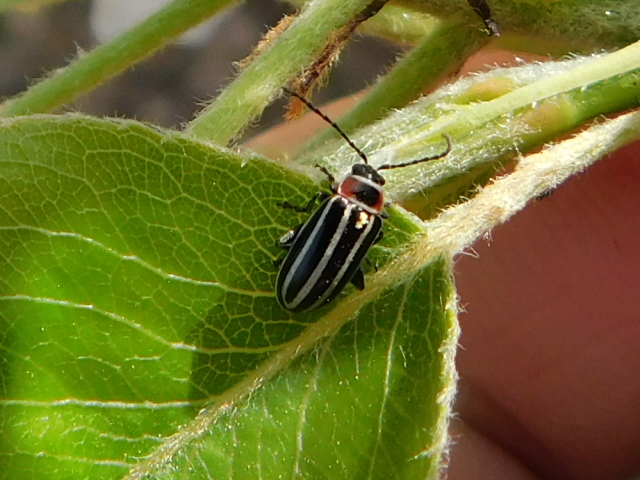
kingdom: Animalia
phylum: Arthropoda
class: Insecta
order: Coleoptera
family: Chrysomelidae
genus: Disonycha
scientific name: Disonycha pensylvanica
